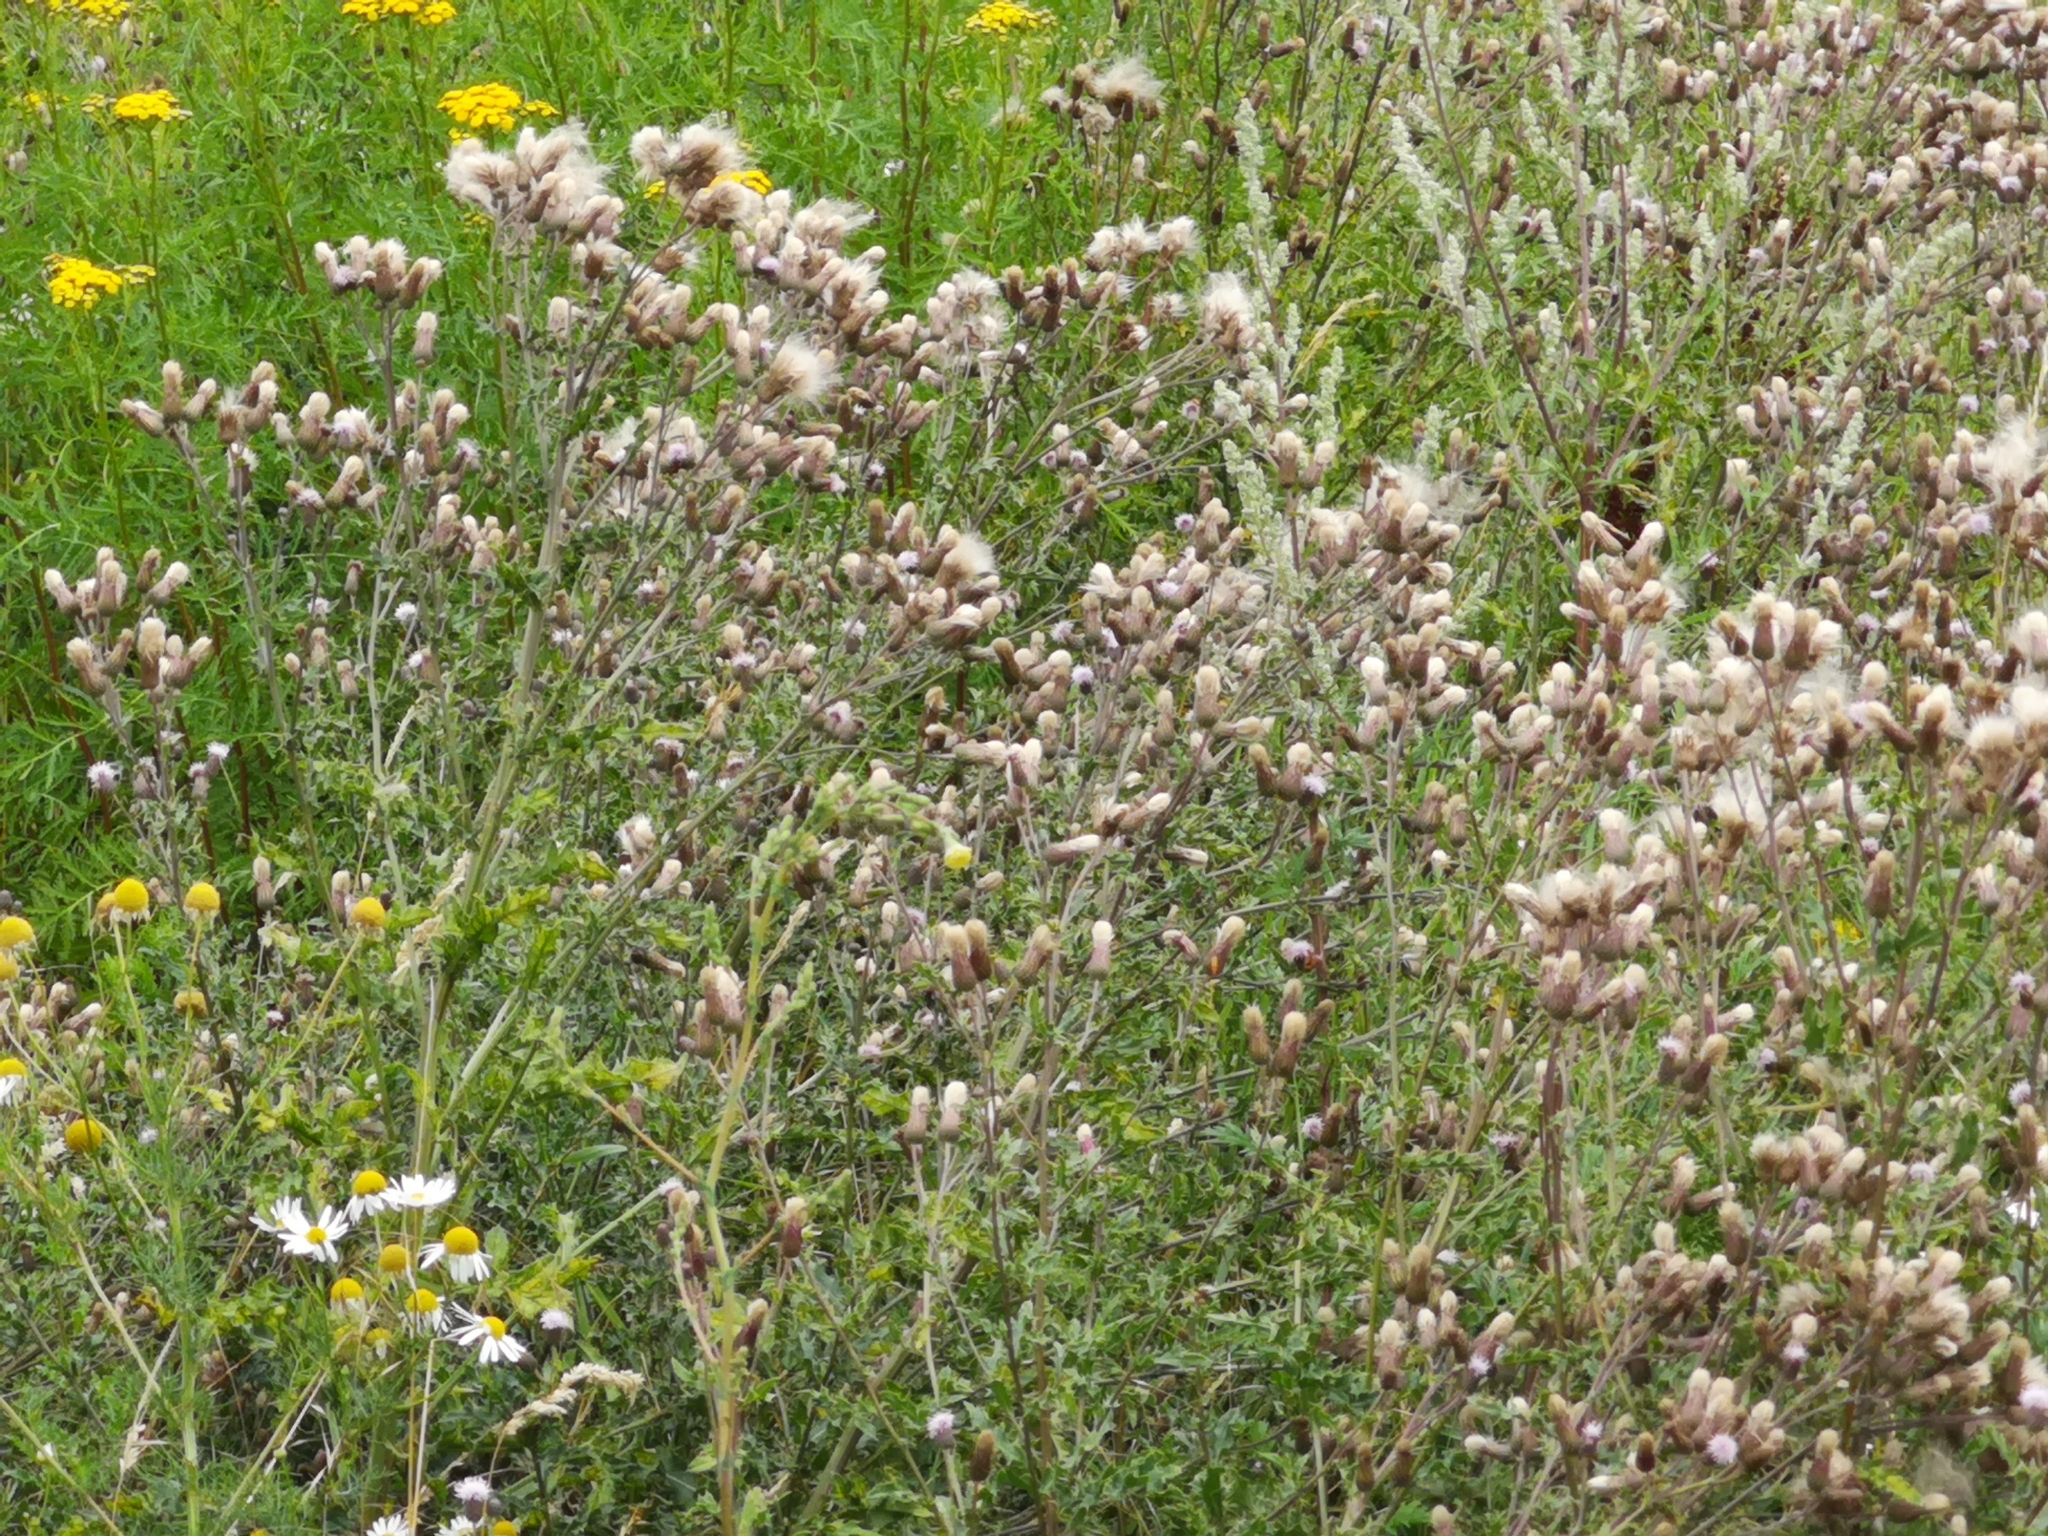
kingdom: Plantae
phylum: Tracheophyta
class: Magnoliopsida
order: Asterales
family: Asteraceae
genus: Cirsium
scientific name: Cirsium arvense
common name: Creeping thistle
